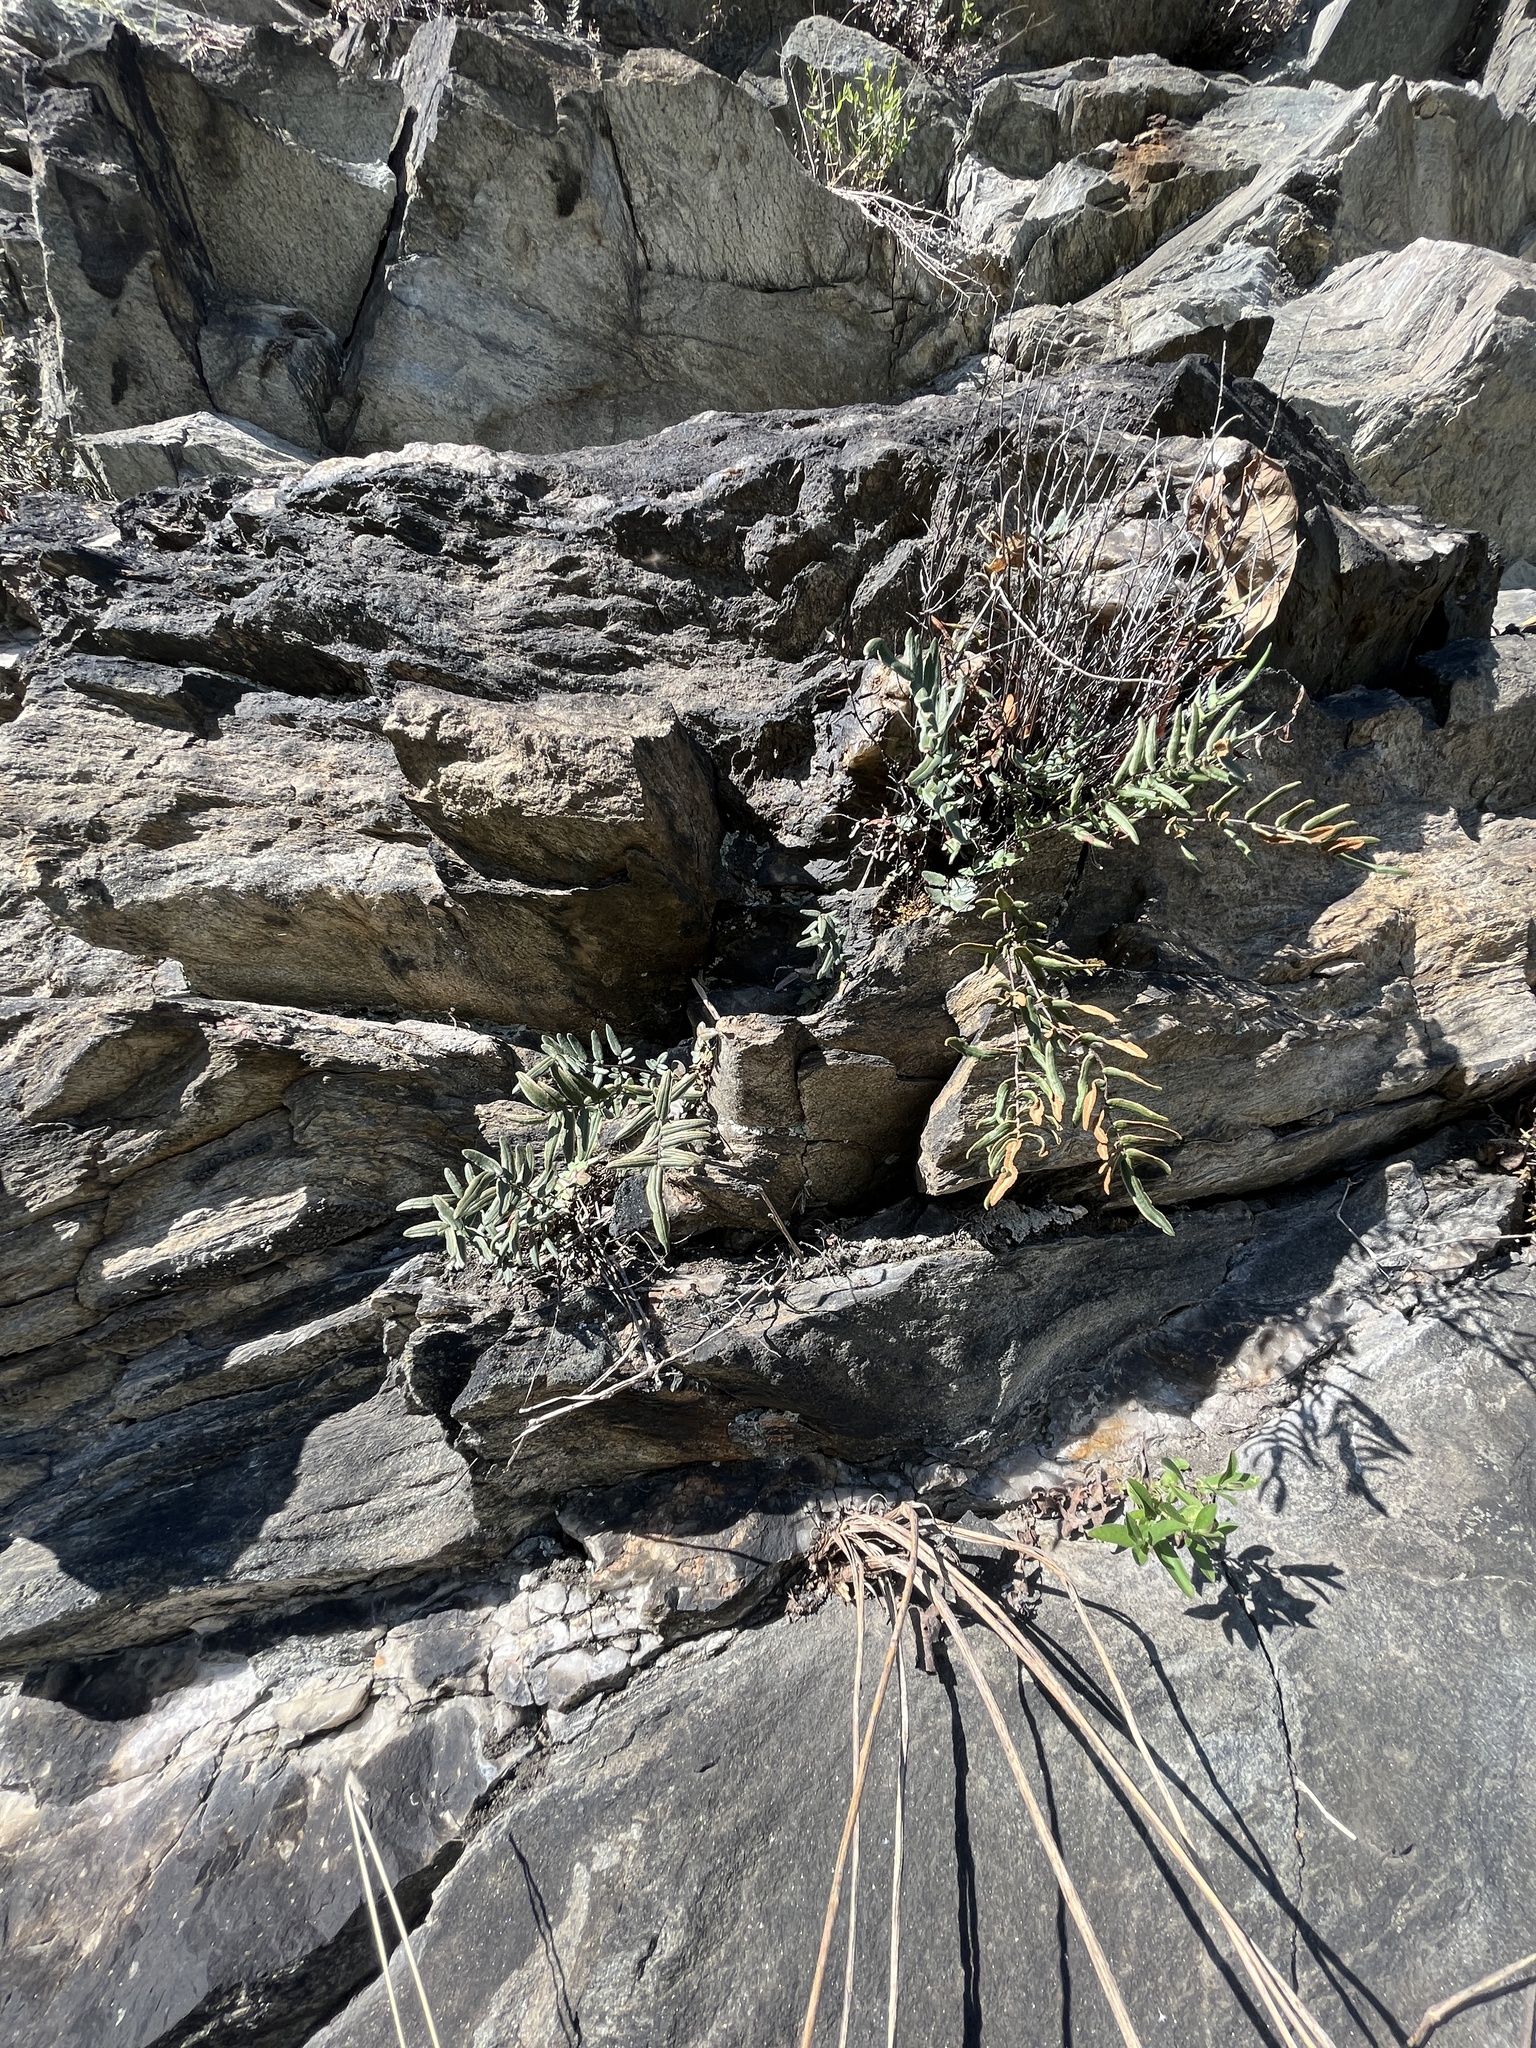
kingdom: Plantae
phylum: Tracheophyta
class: Polypodiopsida
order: Polypodiales
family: Pteridaceae
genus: Pellaea
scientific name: Pellaea atropurpurea
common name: Hairy cliffbrake
